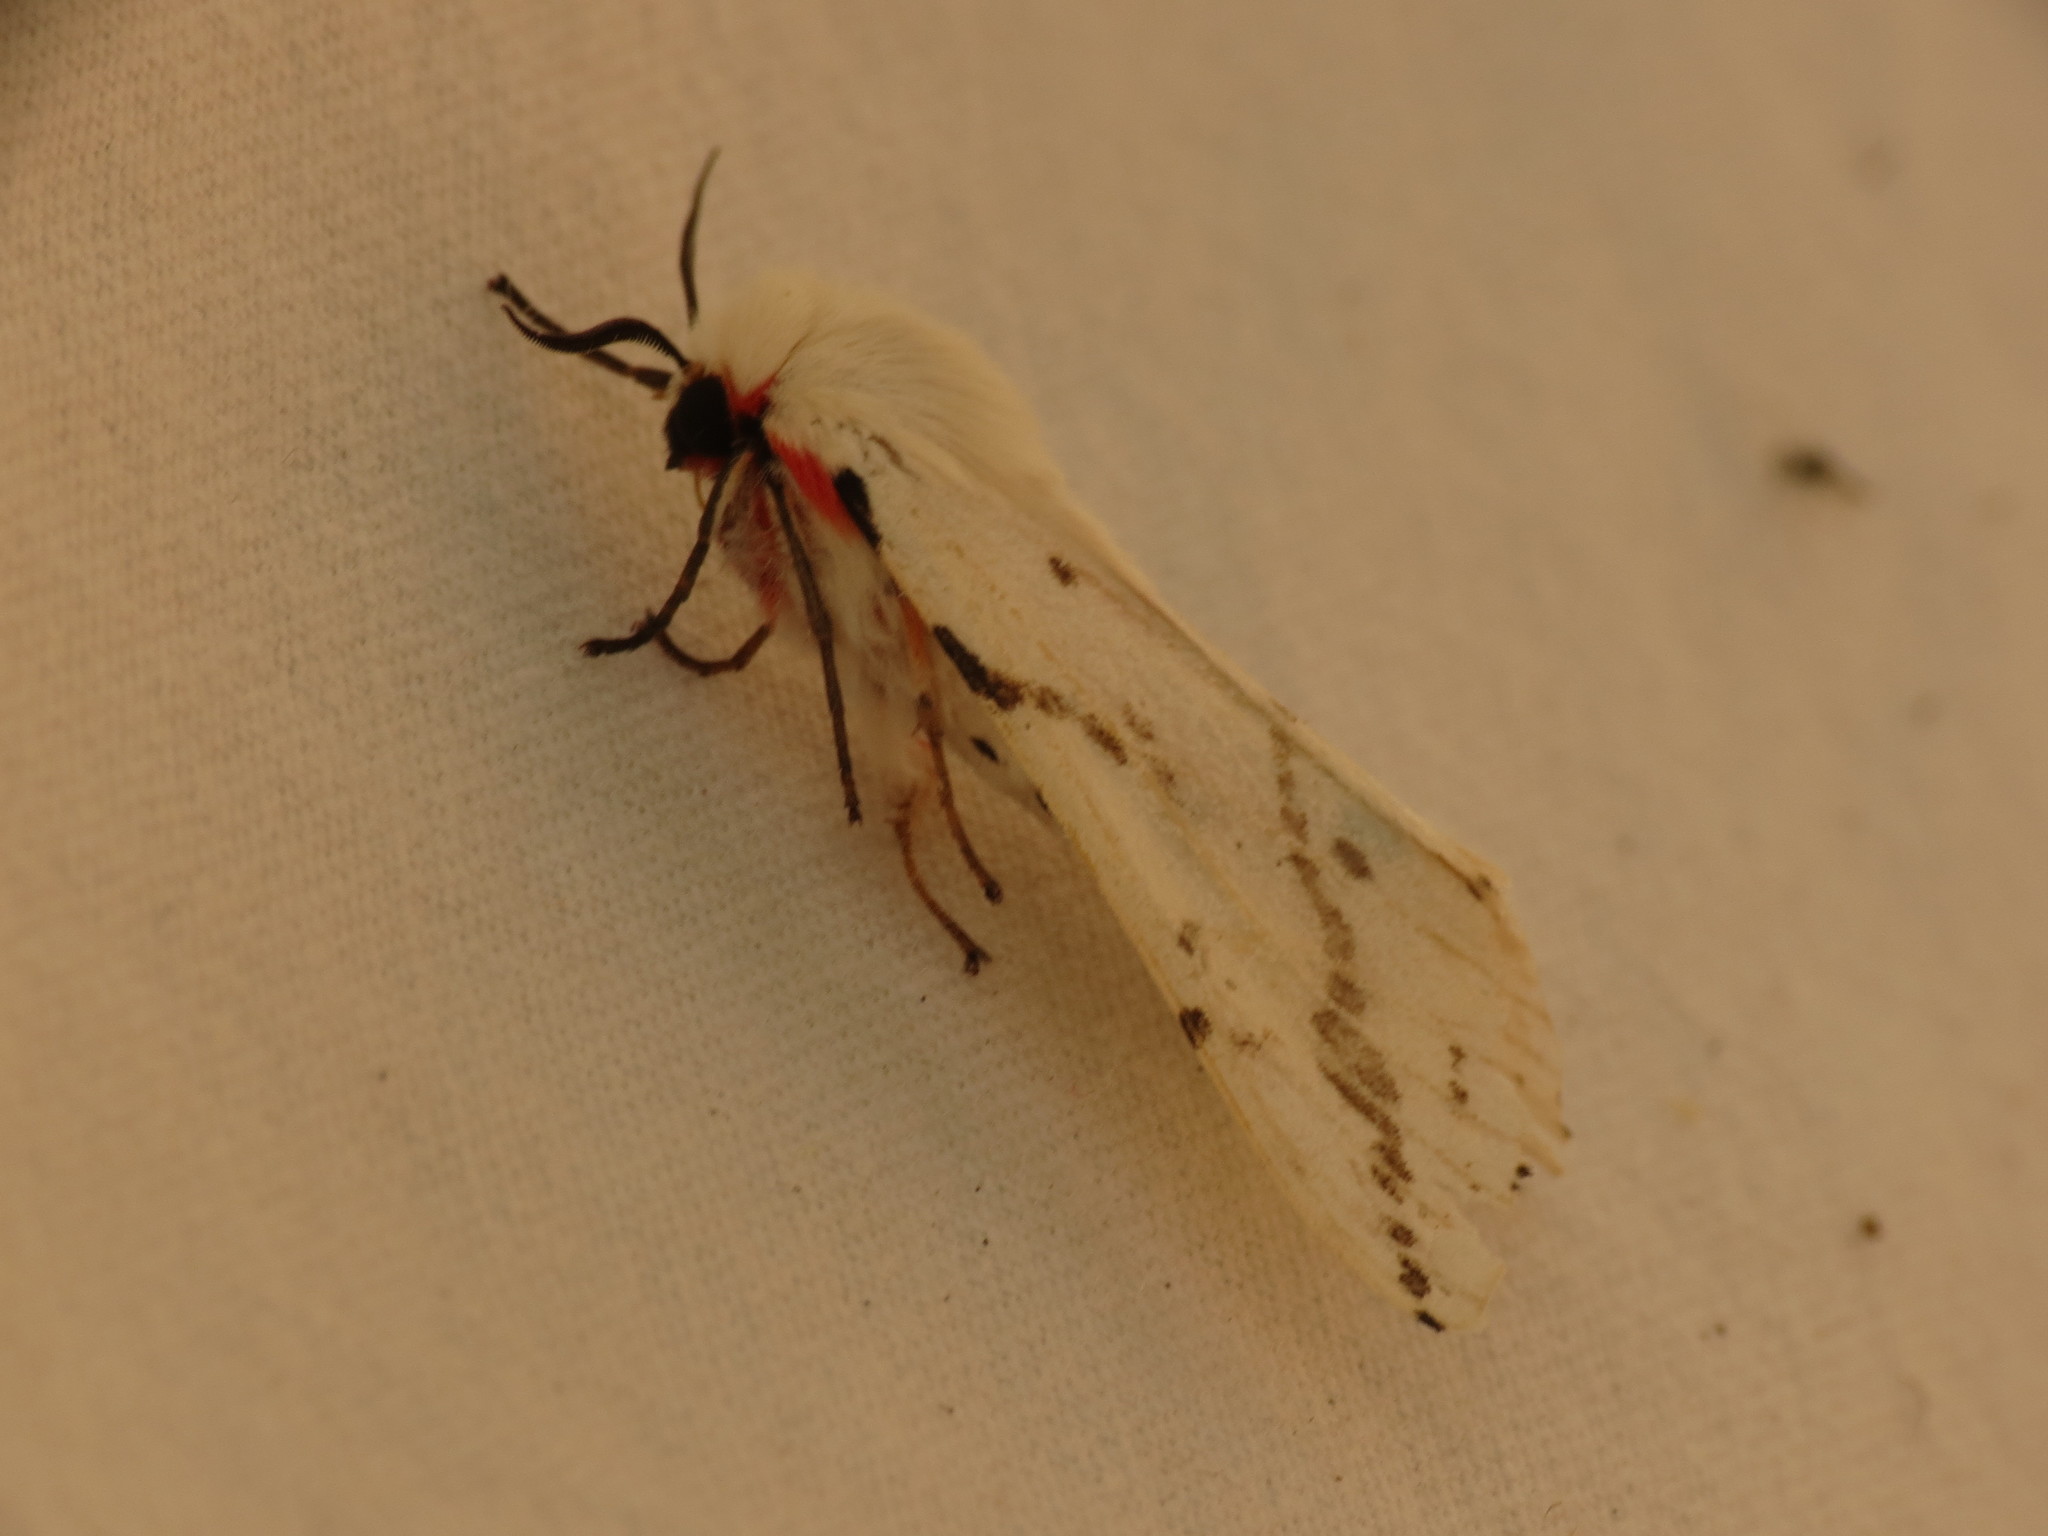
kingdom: Animalia
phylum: Arthropoda
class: Insecta
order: Lepidoptera
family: Erebidae
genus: Ardices
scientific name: Ardices canescens
